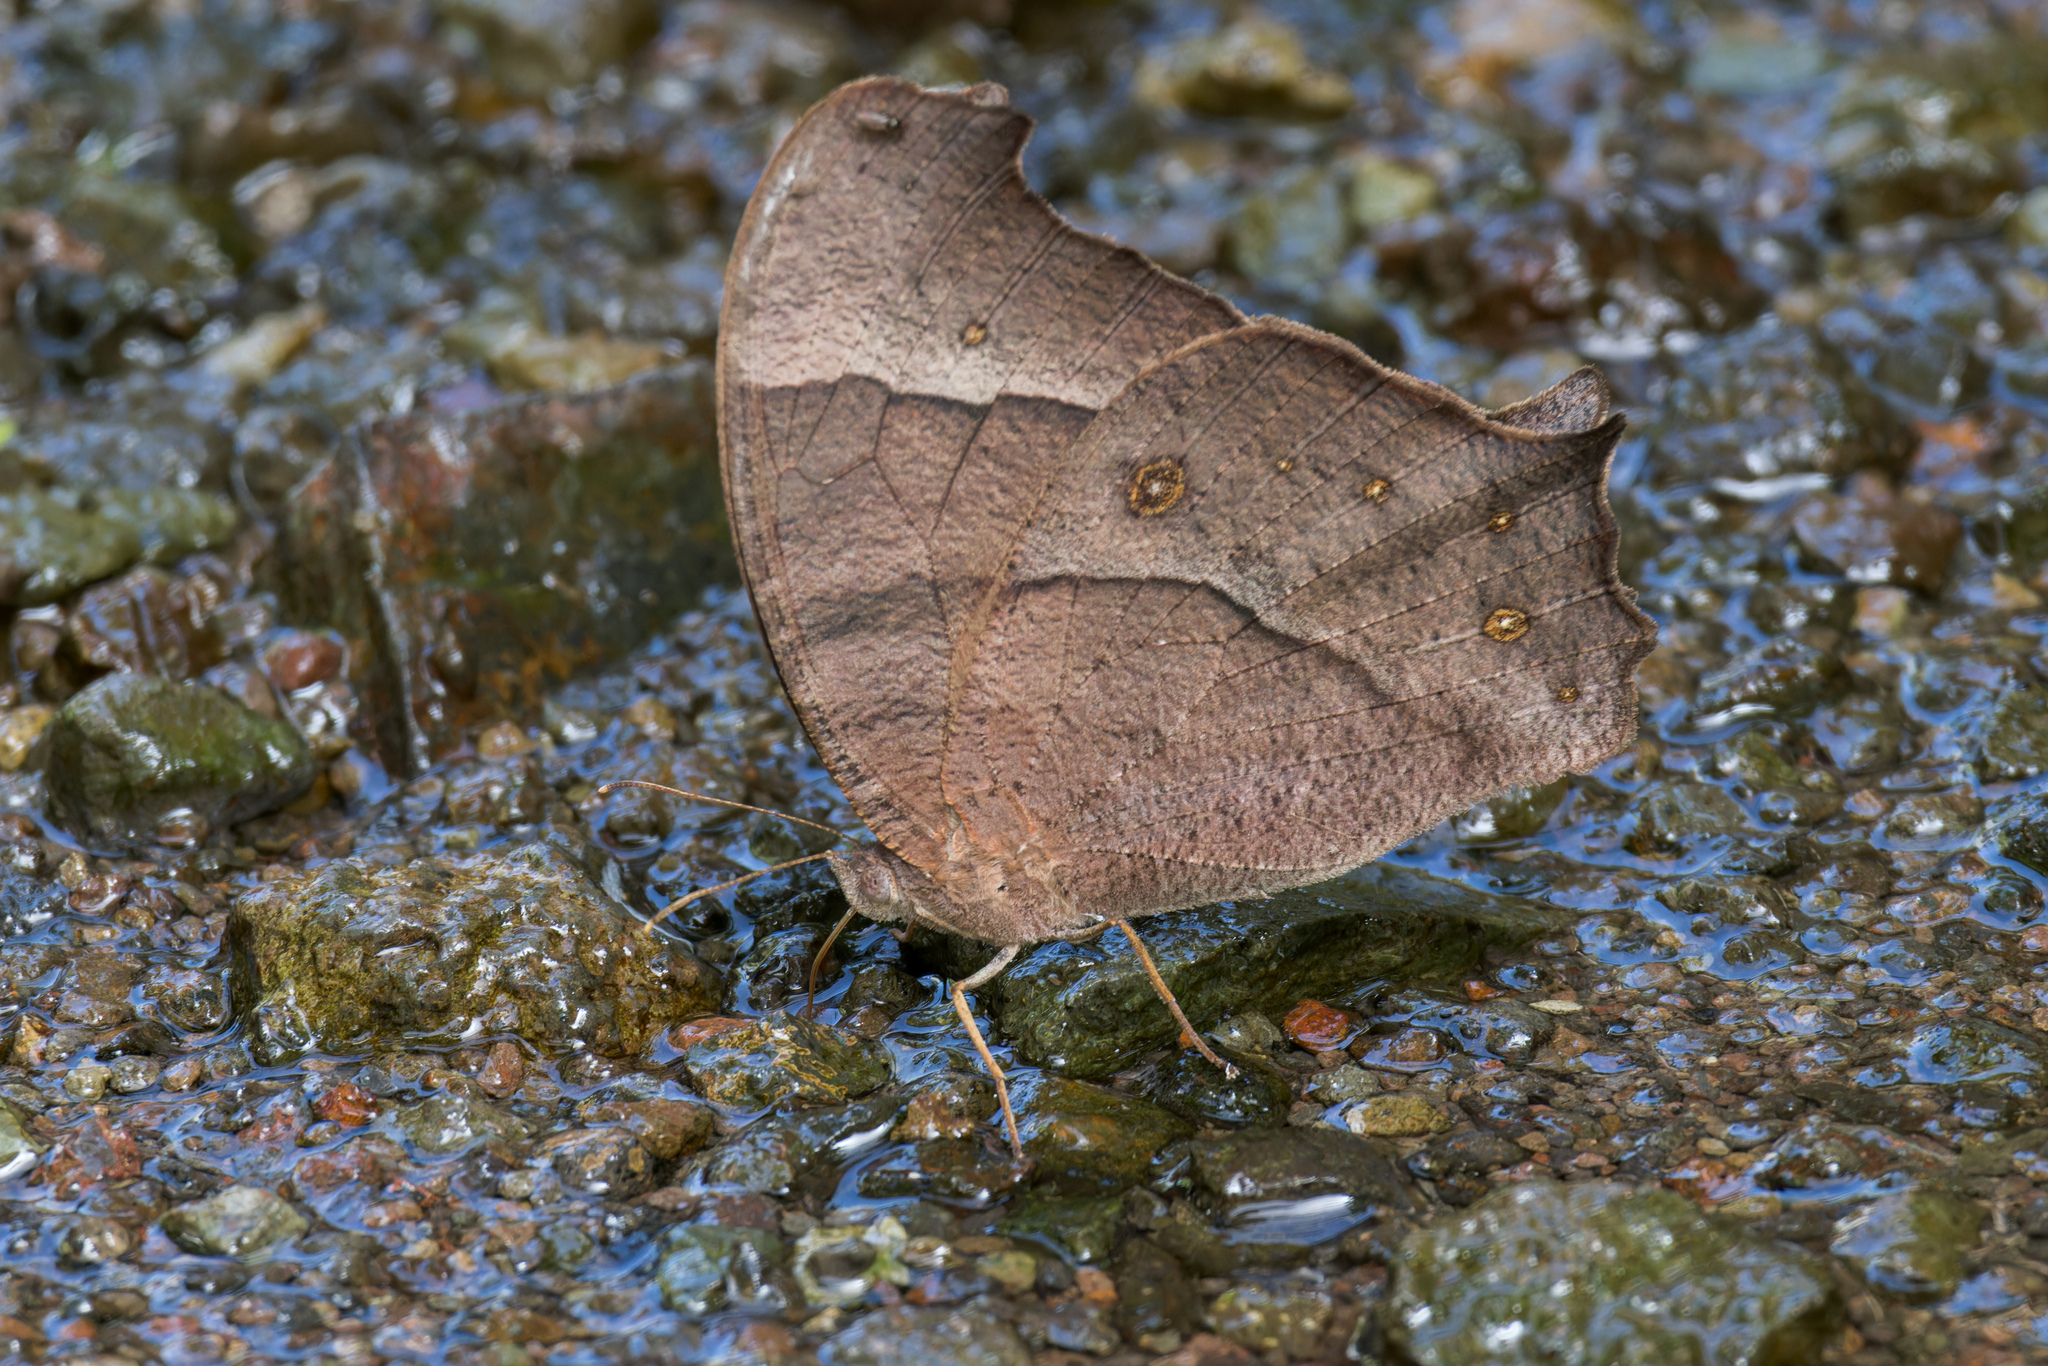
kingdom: Animalia
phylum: Arthropoda
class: Insecta
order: Lepidoptera
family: Nymphalidae
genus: Melanitis
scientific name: Melanitis leda
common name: Twilight brown
